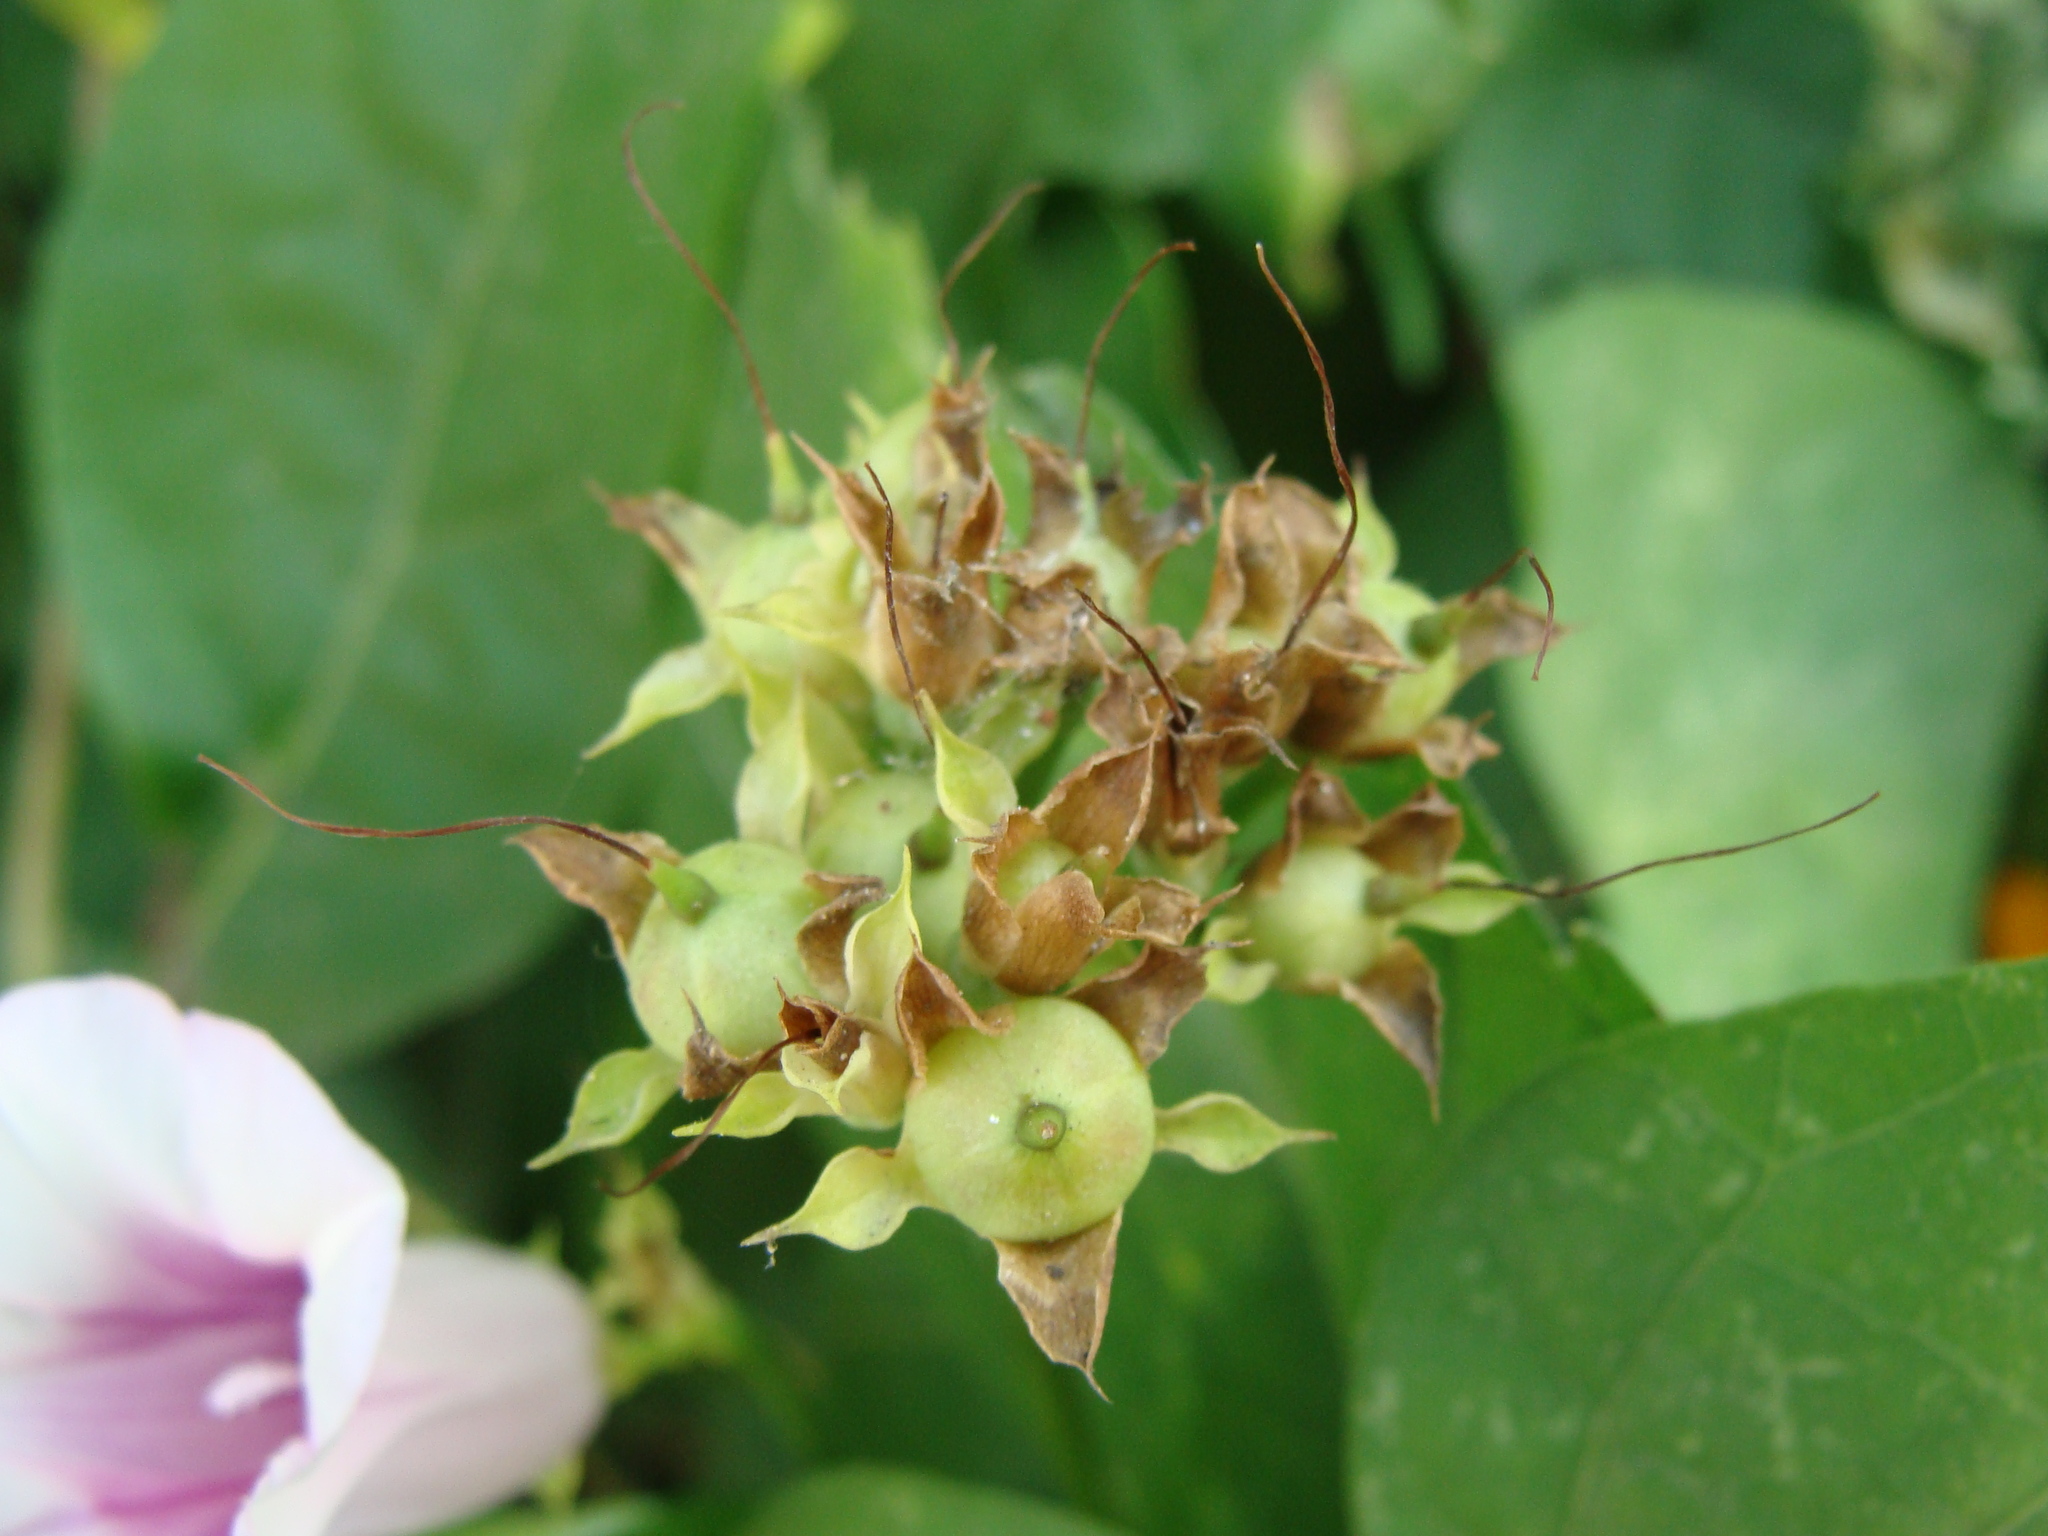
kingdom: Plantae
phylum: Tracheophyta
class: Magnoliopsida
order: Solanales
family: Convolvulaceae
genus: Ipomoea
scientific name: Ipomoea batatas
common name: Sweet-potato
